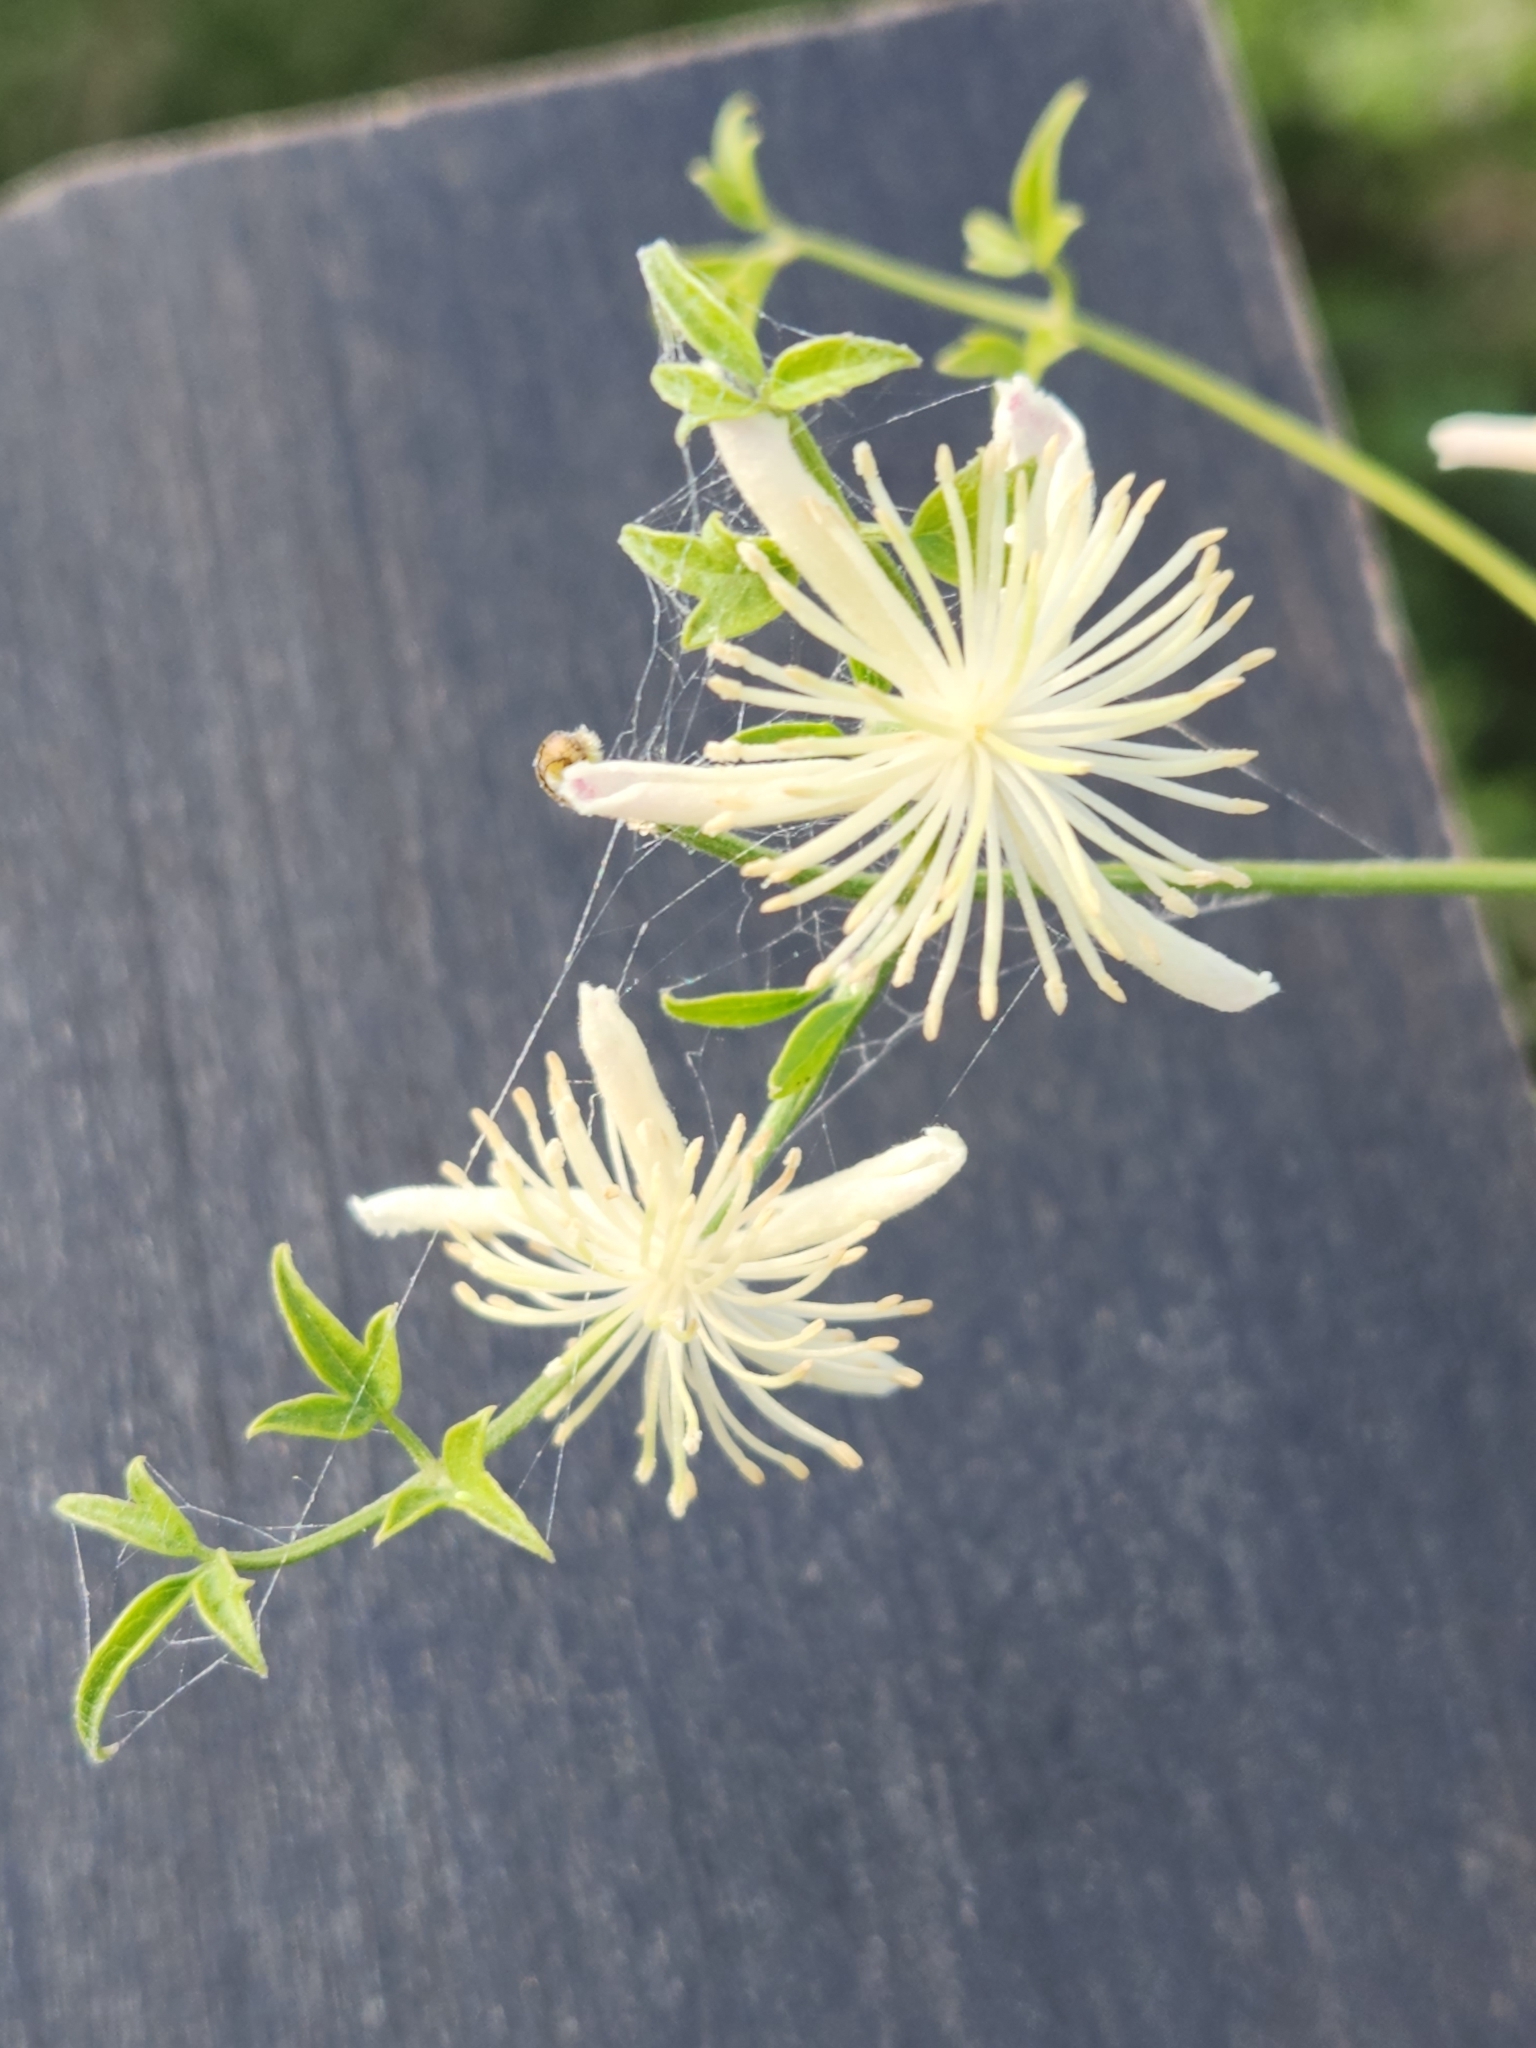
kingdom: Plantae
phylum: Tracheophyta
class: Magnoliopsida
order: Ranunculales
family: Ranunculaceae
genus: Clematis
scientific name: Clematis drummondii
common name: Texas virgin's bower
